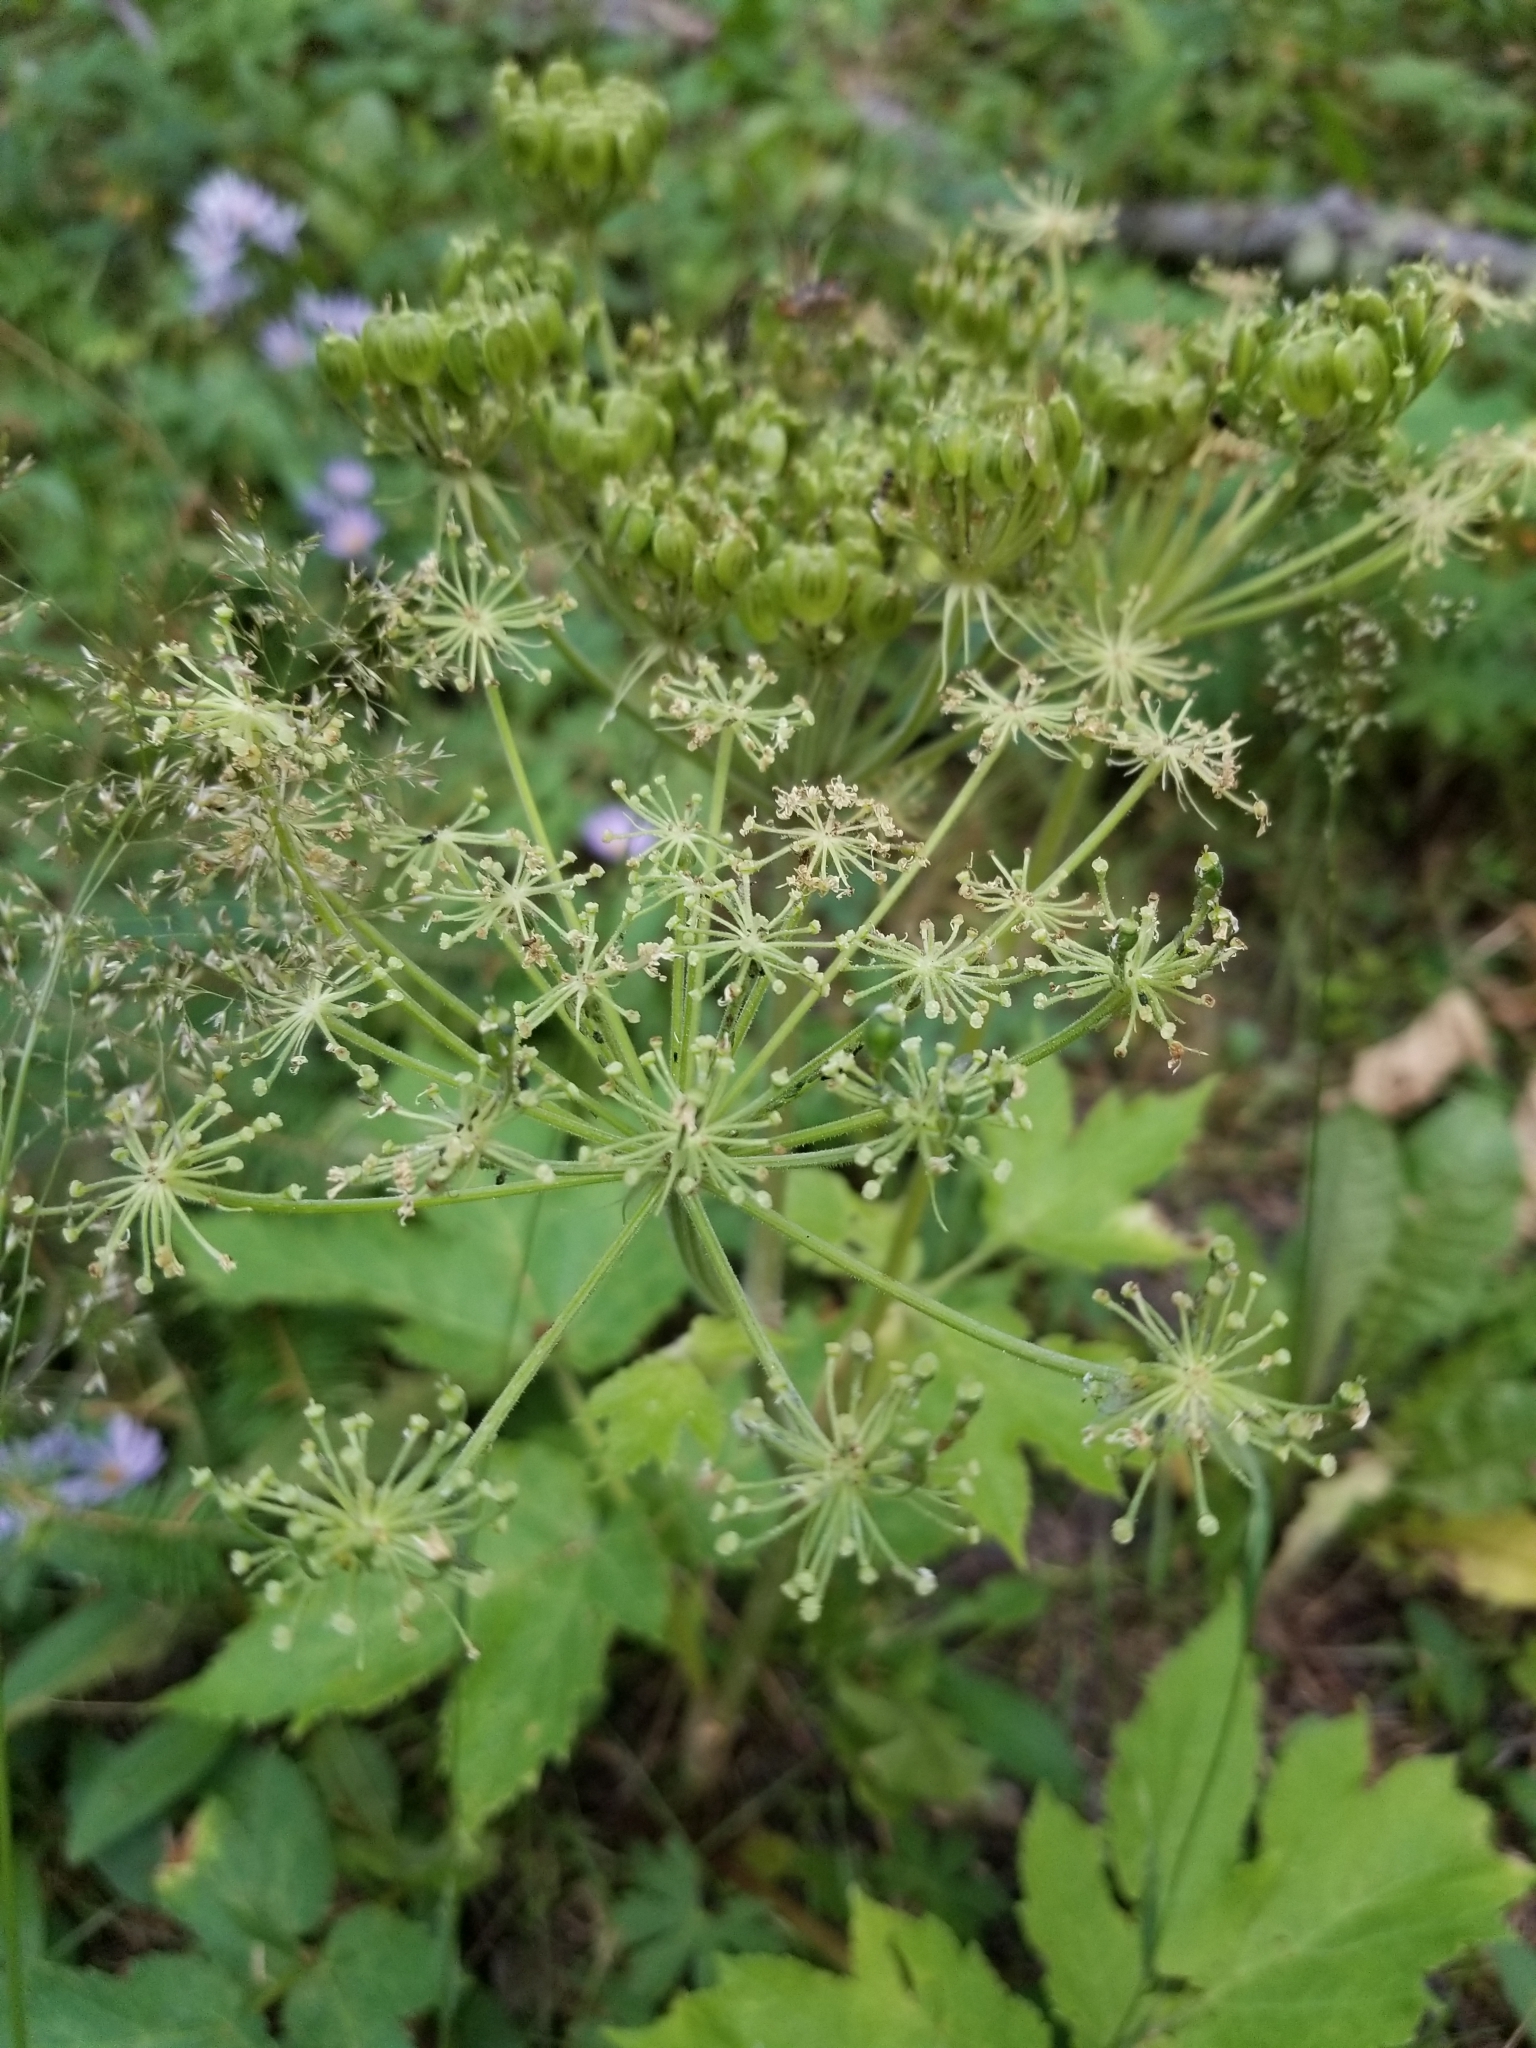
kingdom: Plantae
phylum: Tracheophyta
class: Magnoliopsida
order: Apiales
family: Apiaceae
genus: Heracleum
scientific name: Heracleum maximum
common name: American cow parsnip
